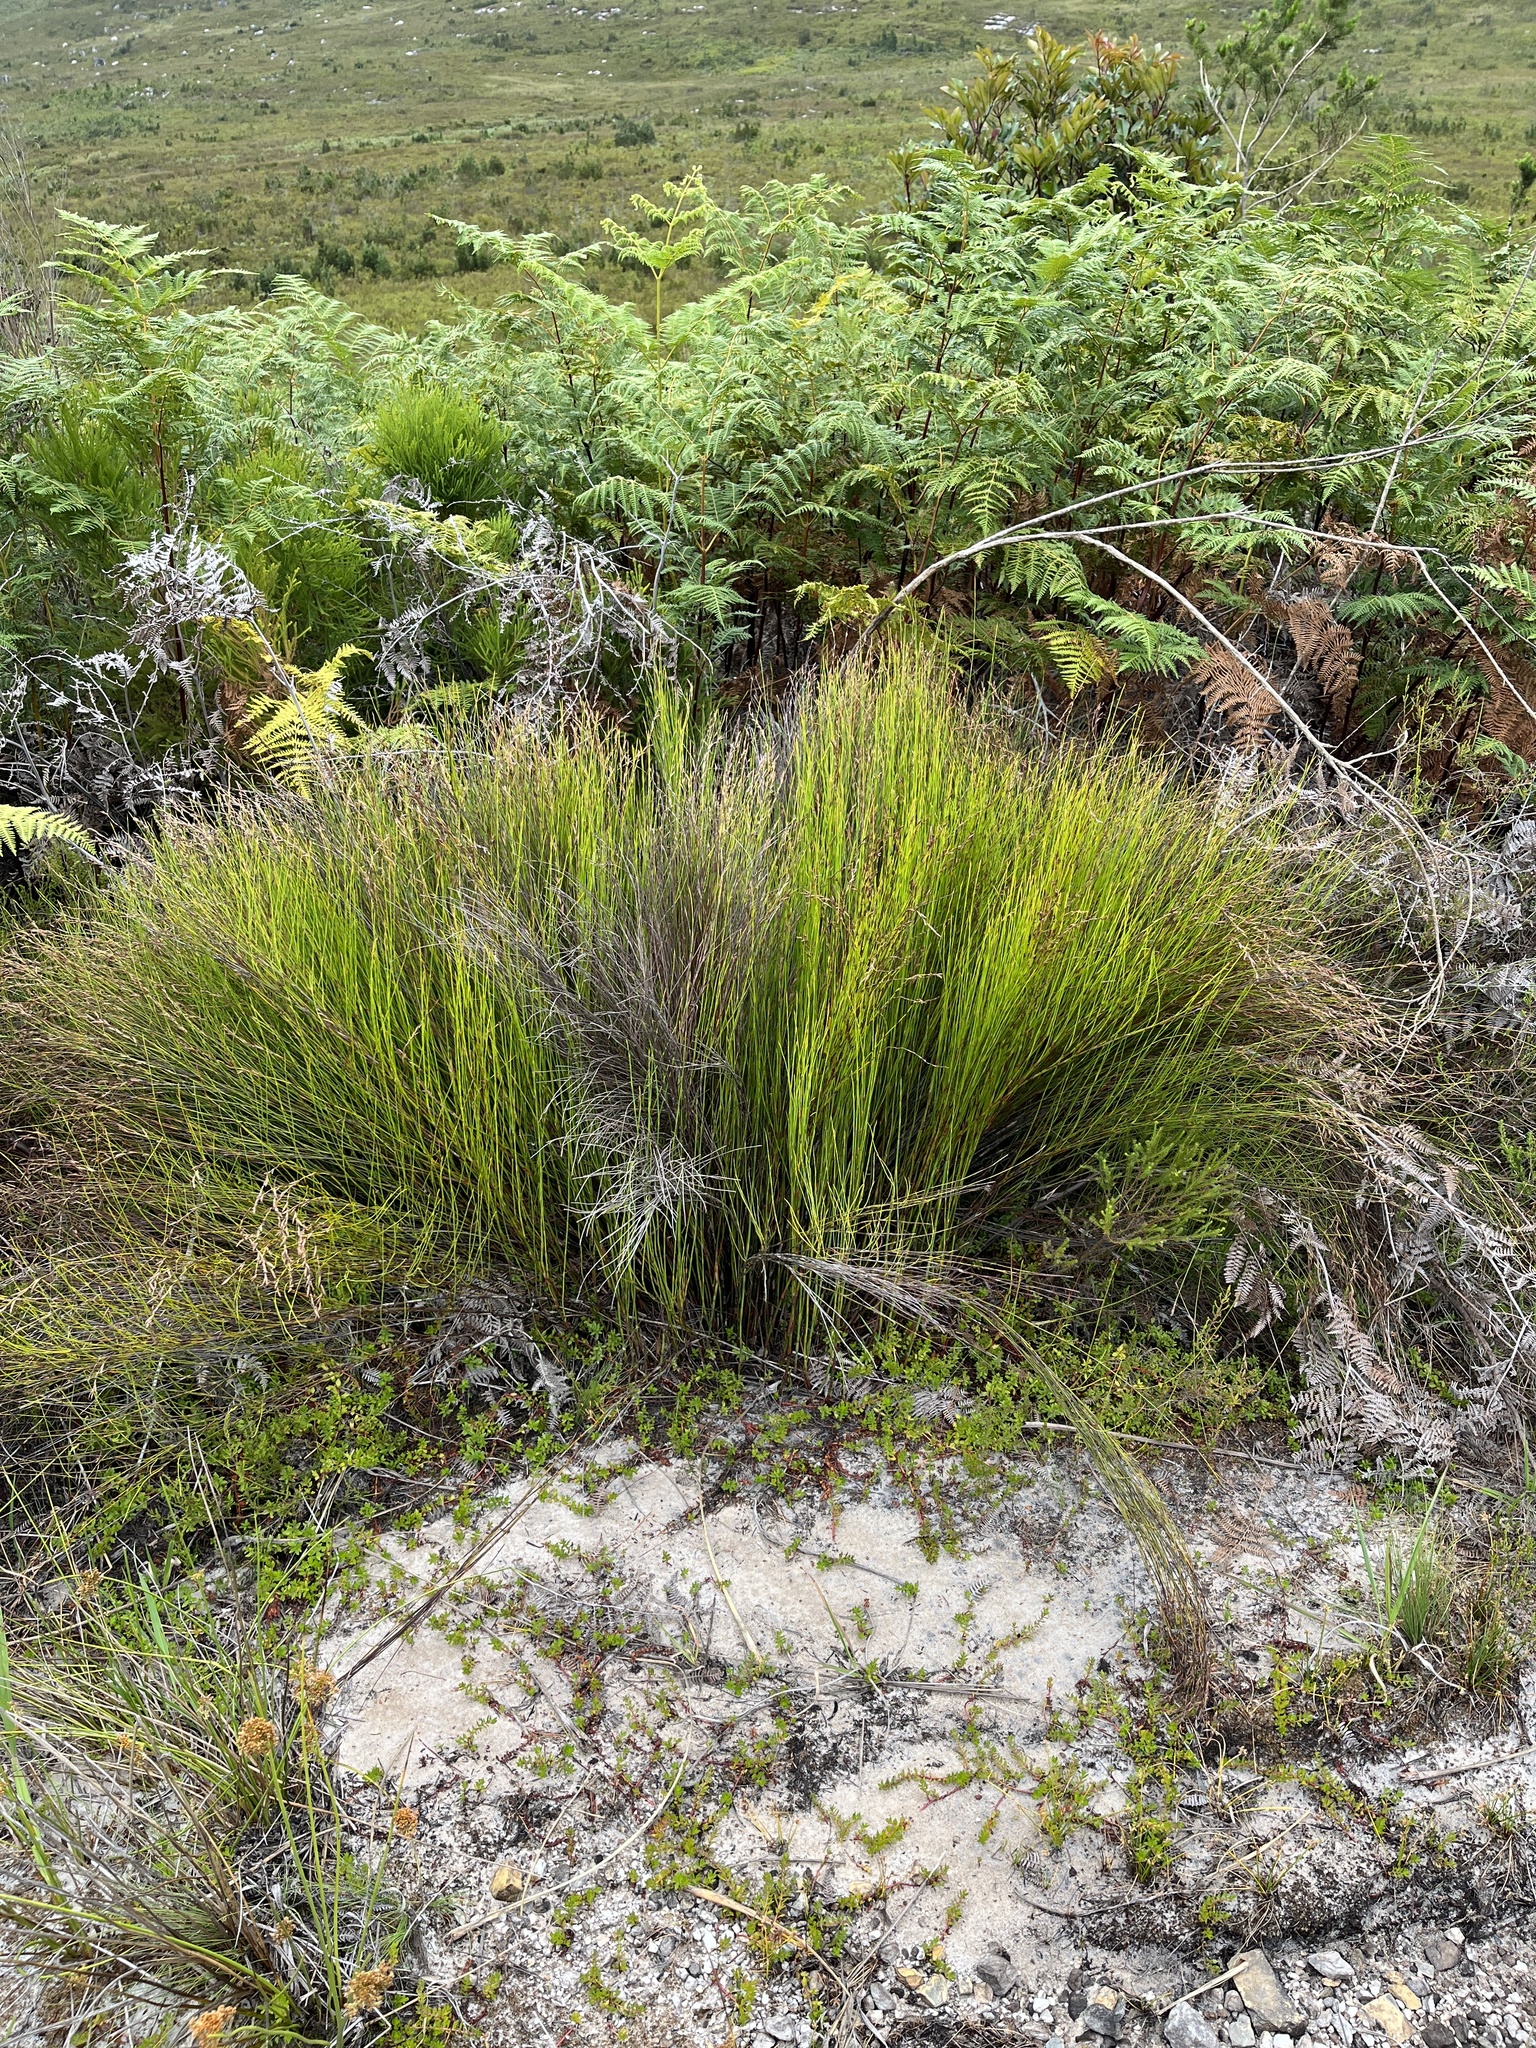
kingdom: Plantae
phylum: Tracheophyta
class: Liliopsida
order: Poales
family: Restionaceae
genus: Platycaulos
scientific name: Platycaulos anceps
